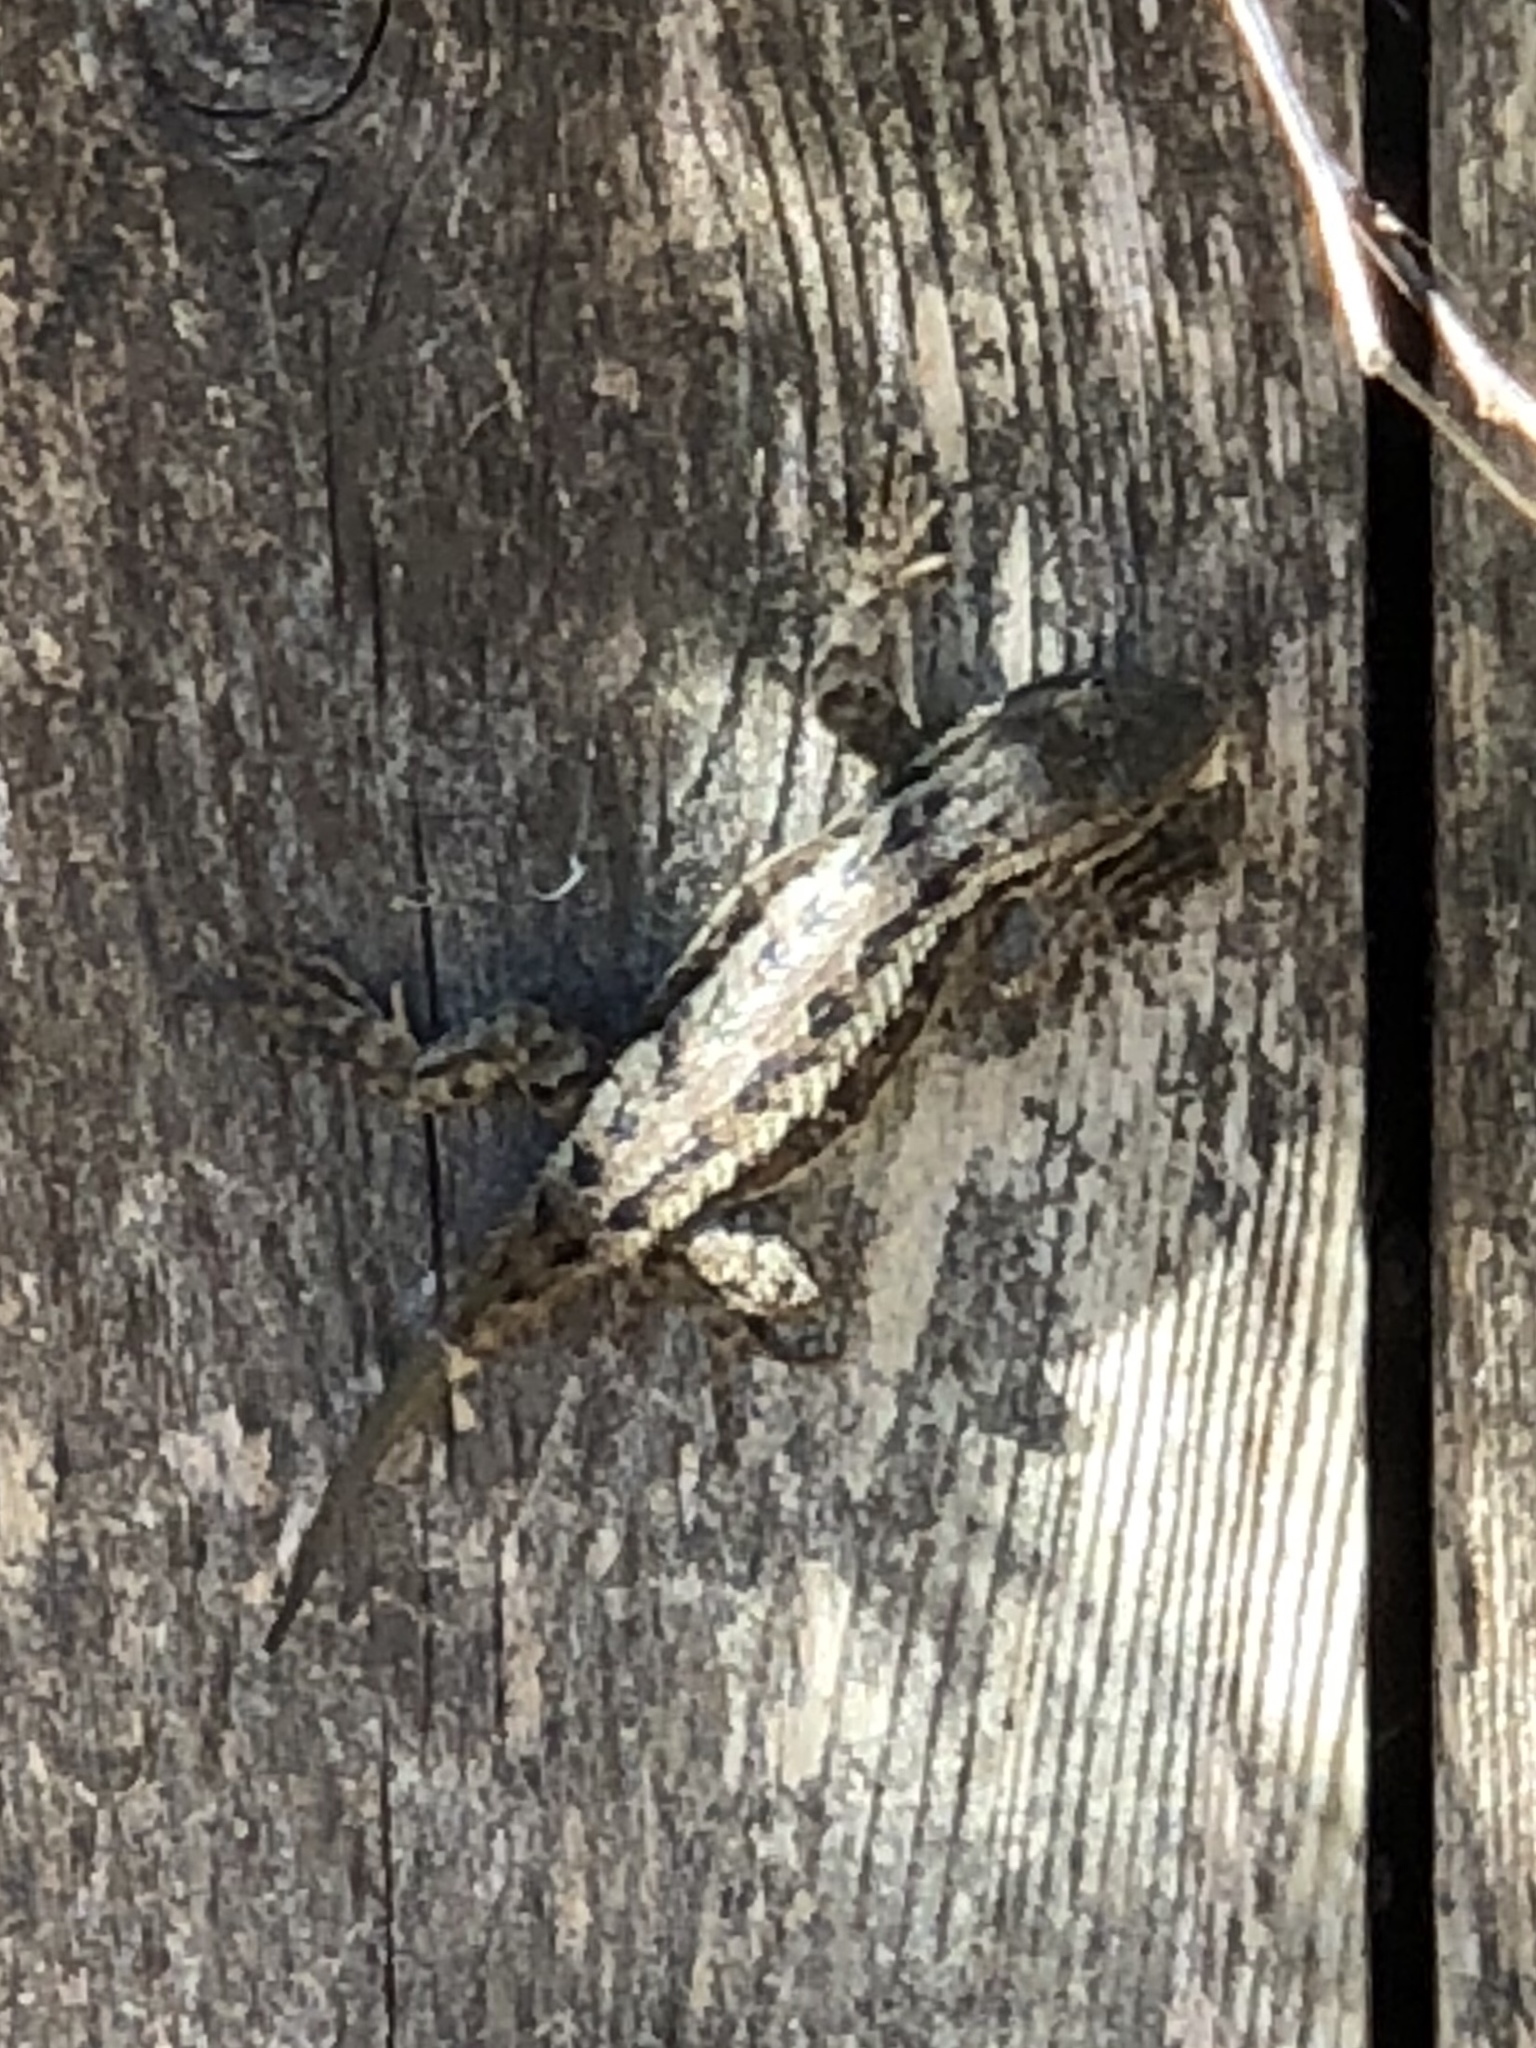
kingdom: Animalia
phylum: Chordata
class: Squamata
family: Phrynosomatidae
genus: Sceloporus
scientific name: Sceloporus occidentalis
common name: Western fence lizard
